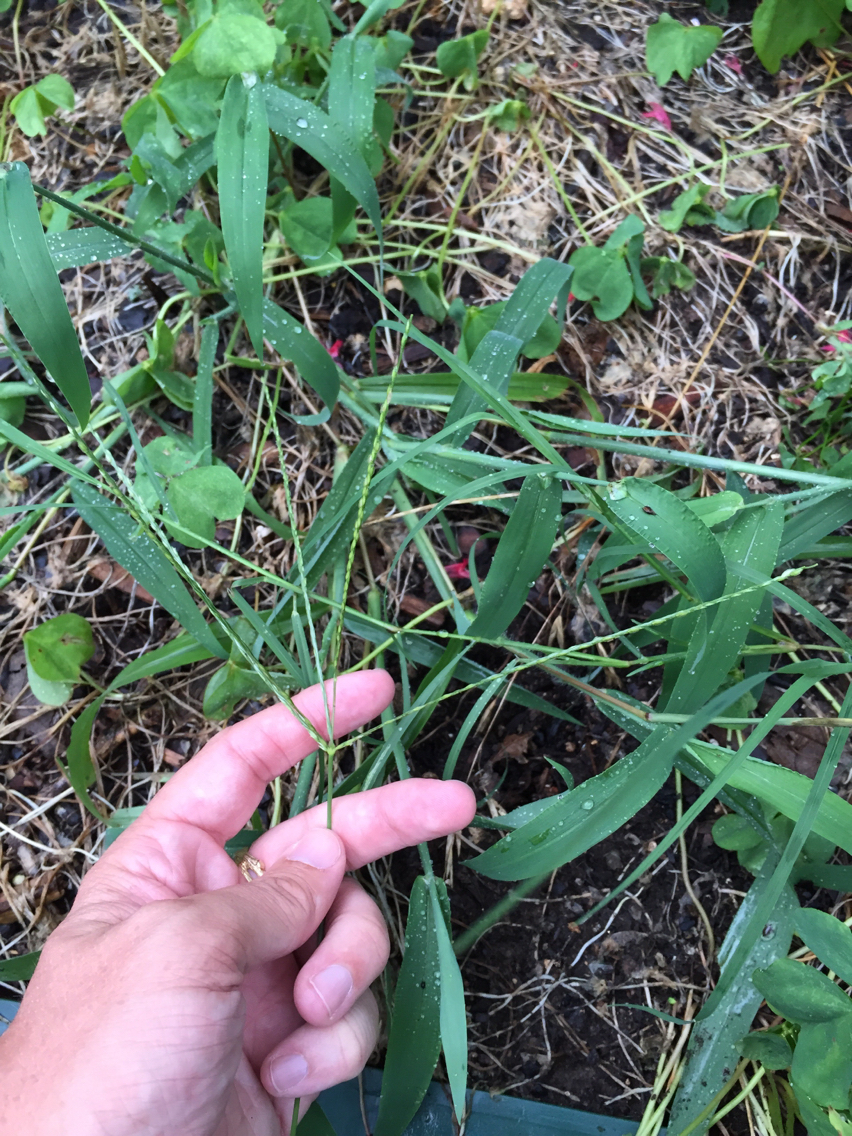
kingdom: Plantae
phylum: Tracheophyta
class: Liliopsida
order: Poales
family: Poaceae
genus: Digitaria
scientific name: Digitaria ciliaris
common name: Tropical finger-grass
